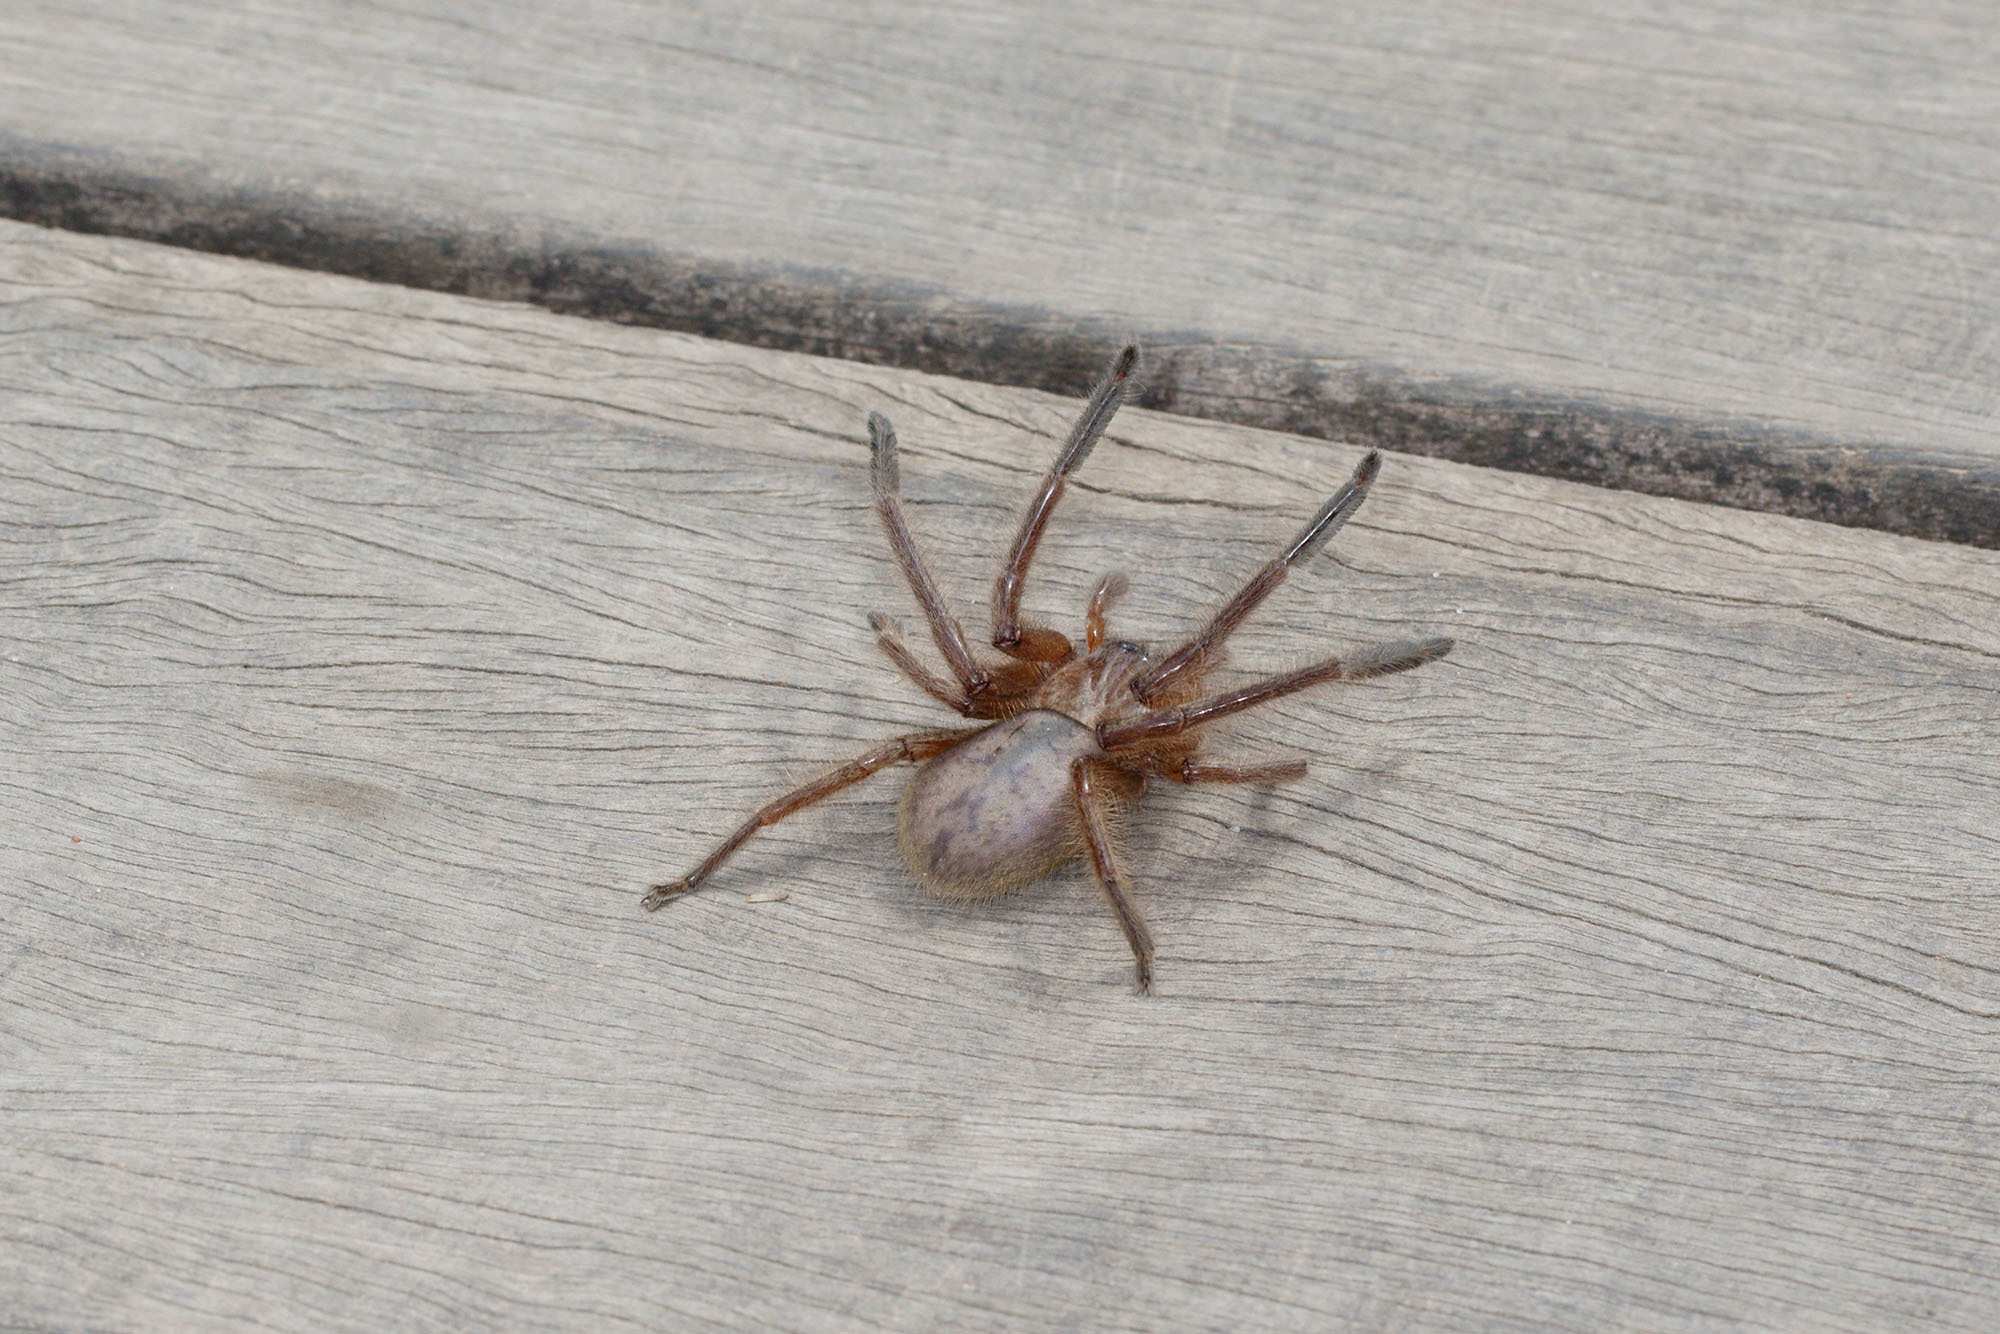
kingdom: Animalia
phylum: Arthropoda
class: Arachnida
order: Araneae
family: Sparassidae
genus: Delena
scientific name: Delena cancerides
